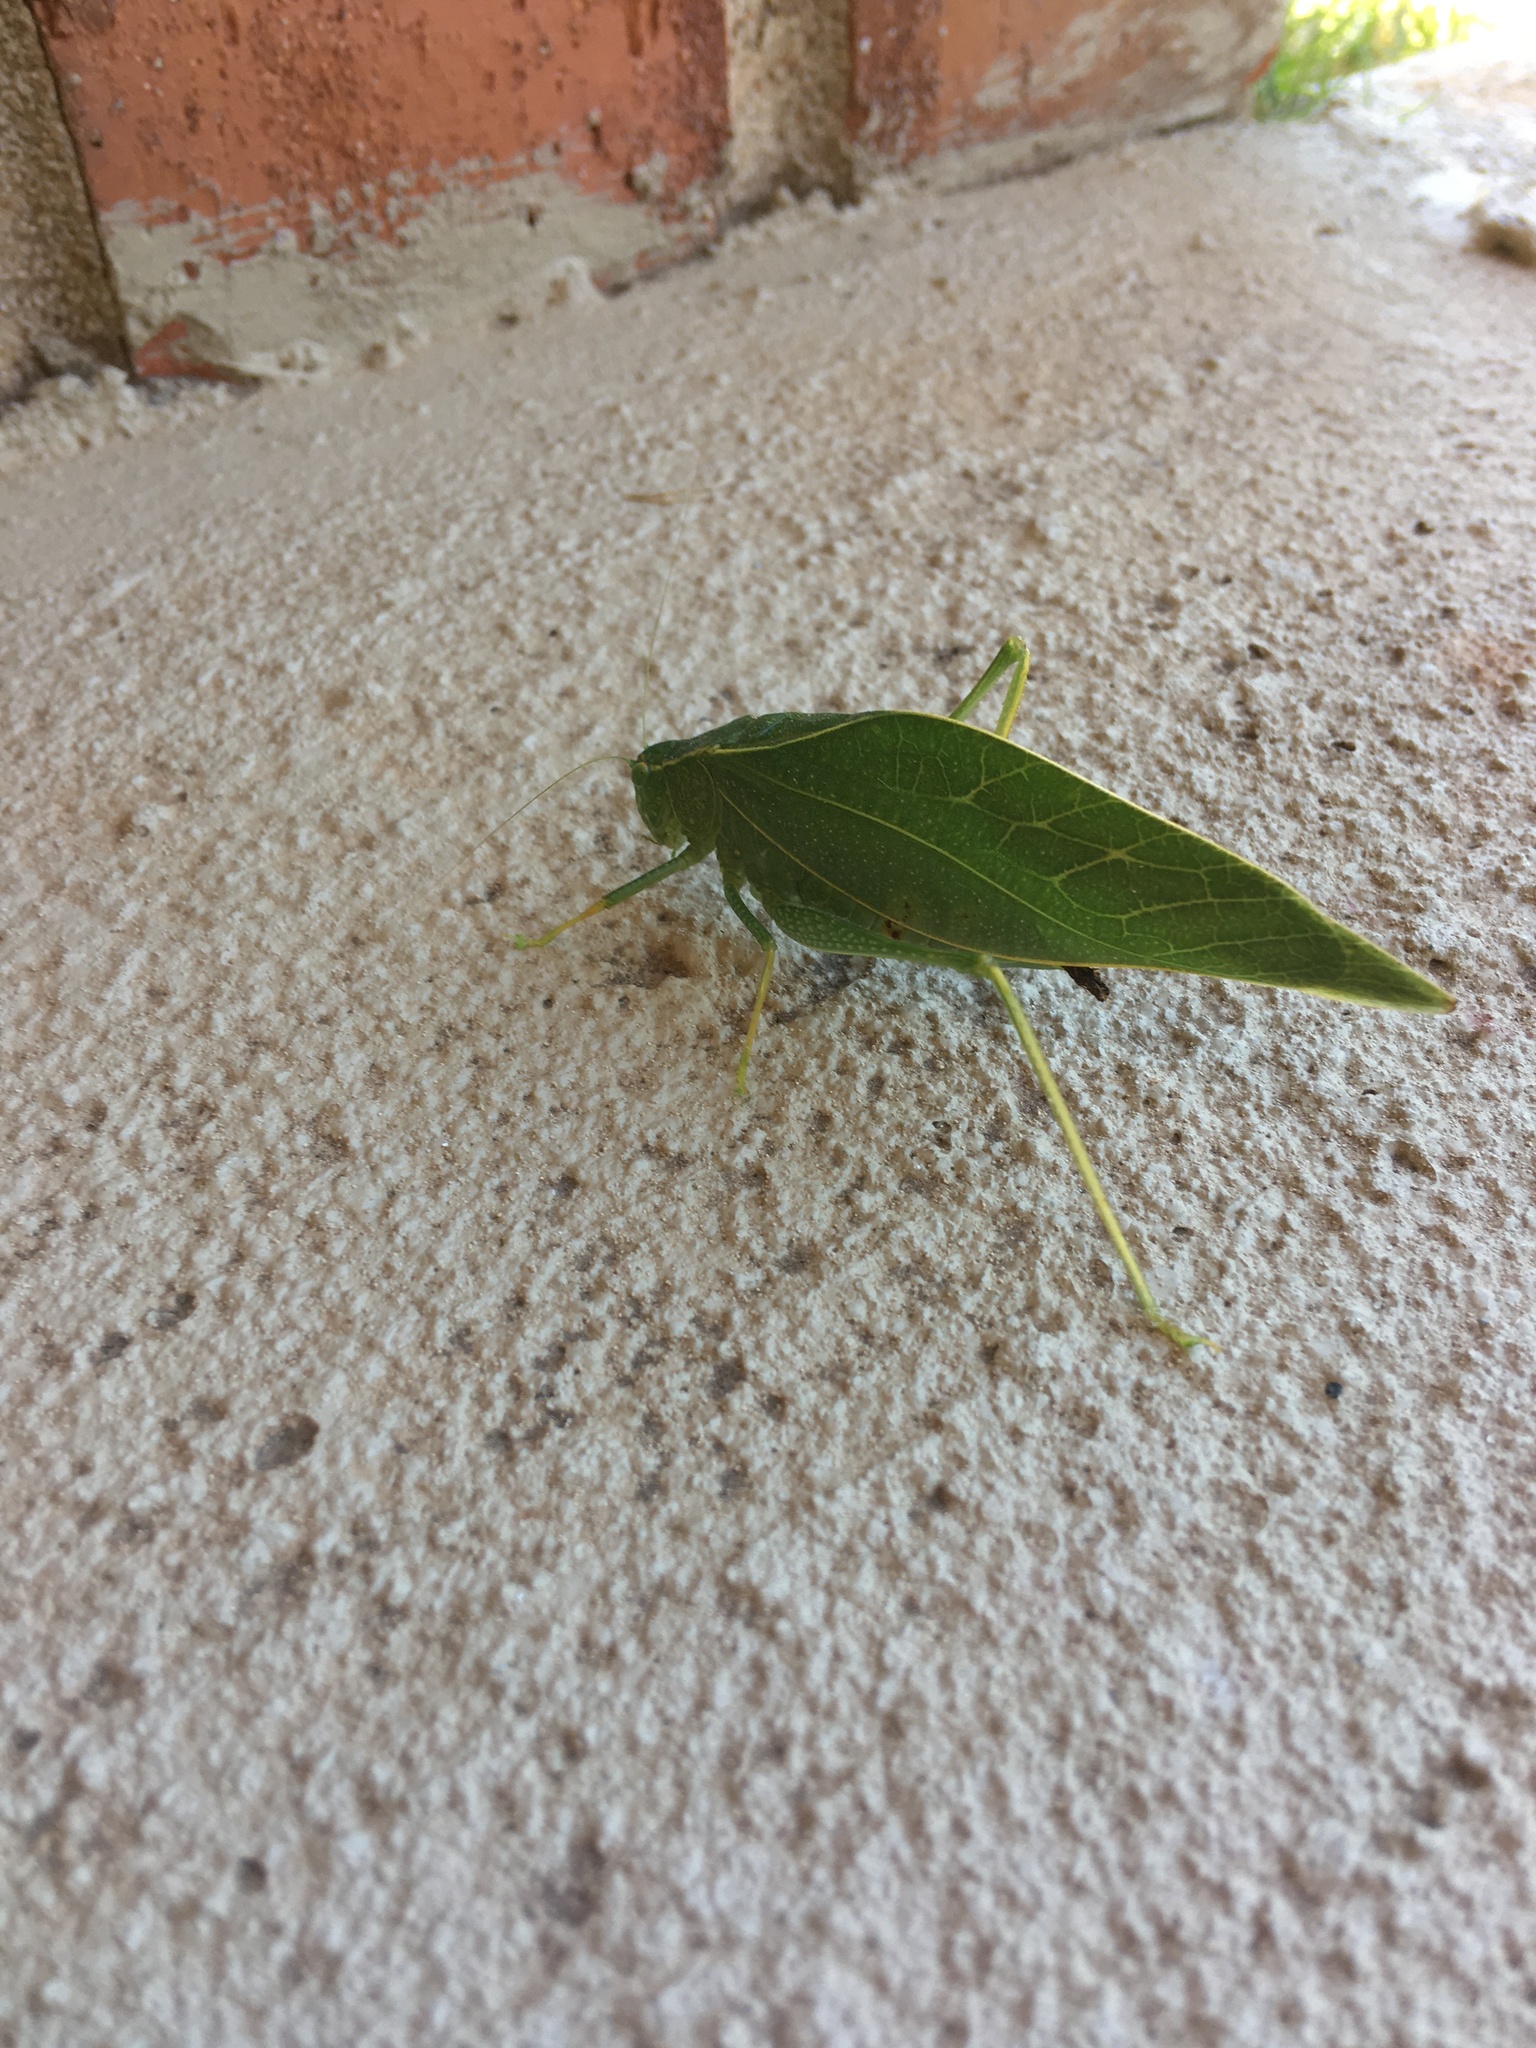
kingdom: Animalia
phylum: Arthropoda
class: Insecta
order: Orthoptera
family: Tettigoniidae
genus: Microcentrum
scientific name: Microcentrum rhombifolium
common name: Broad-winged katydid
